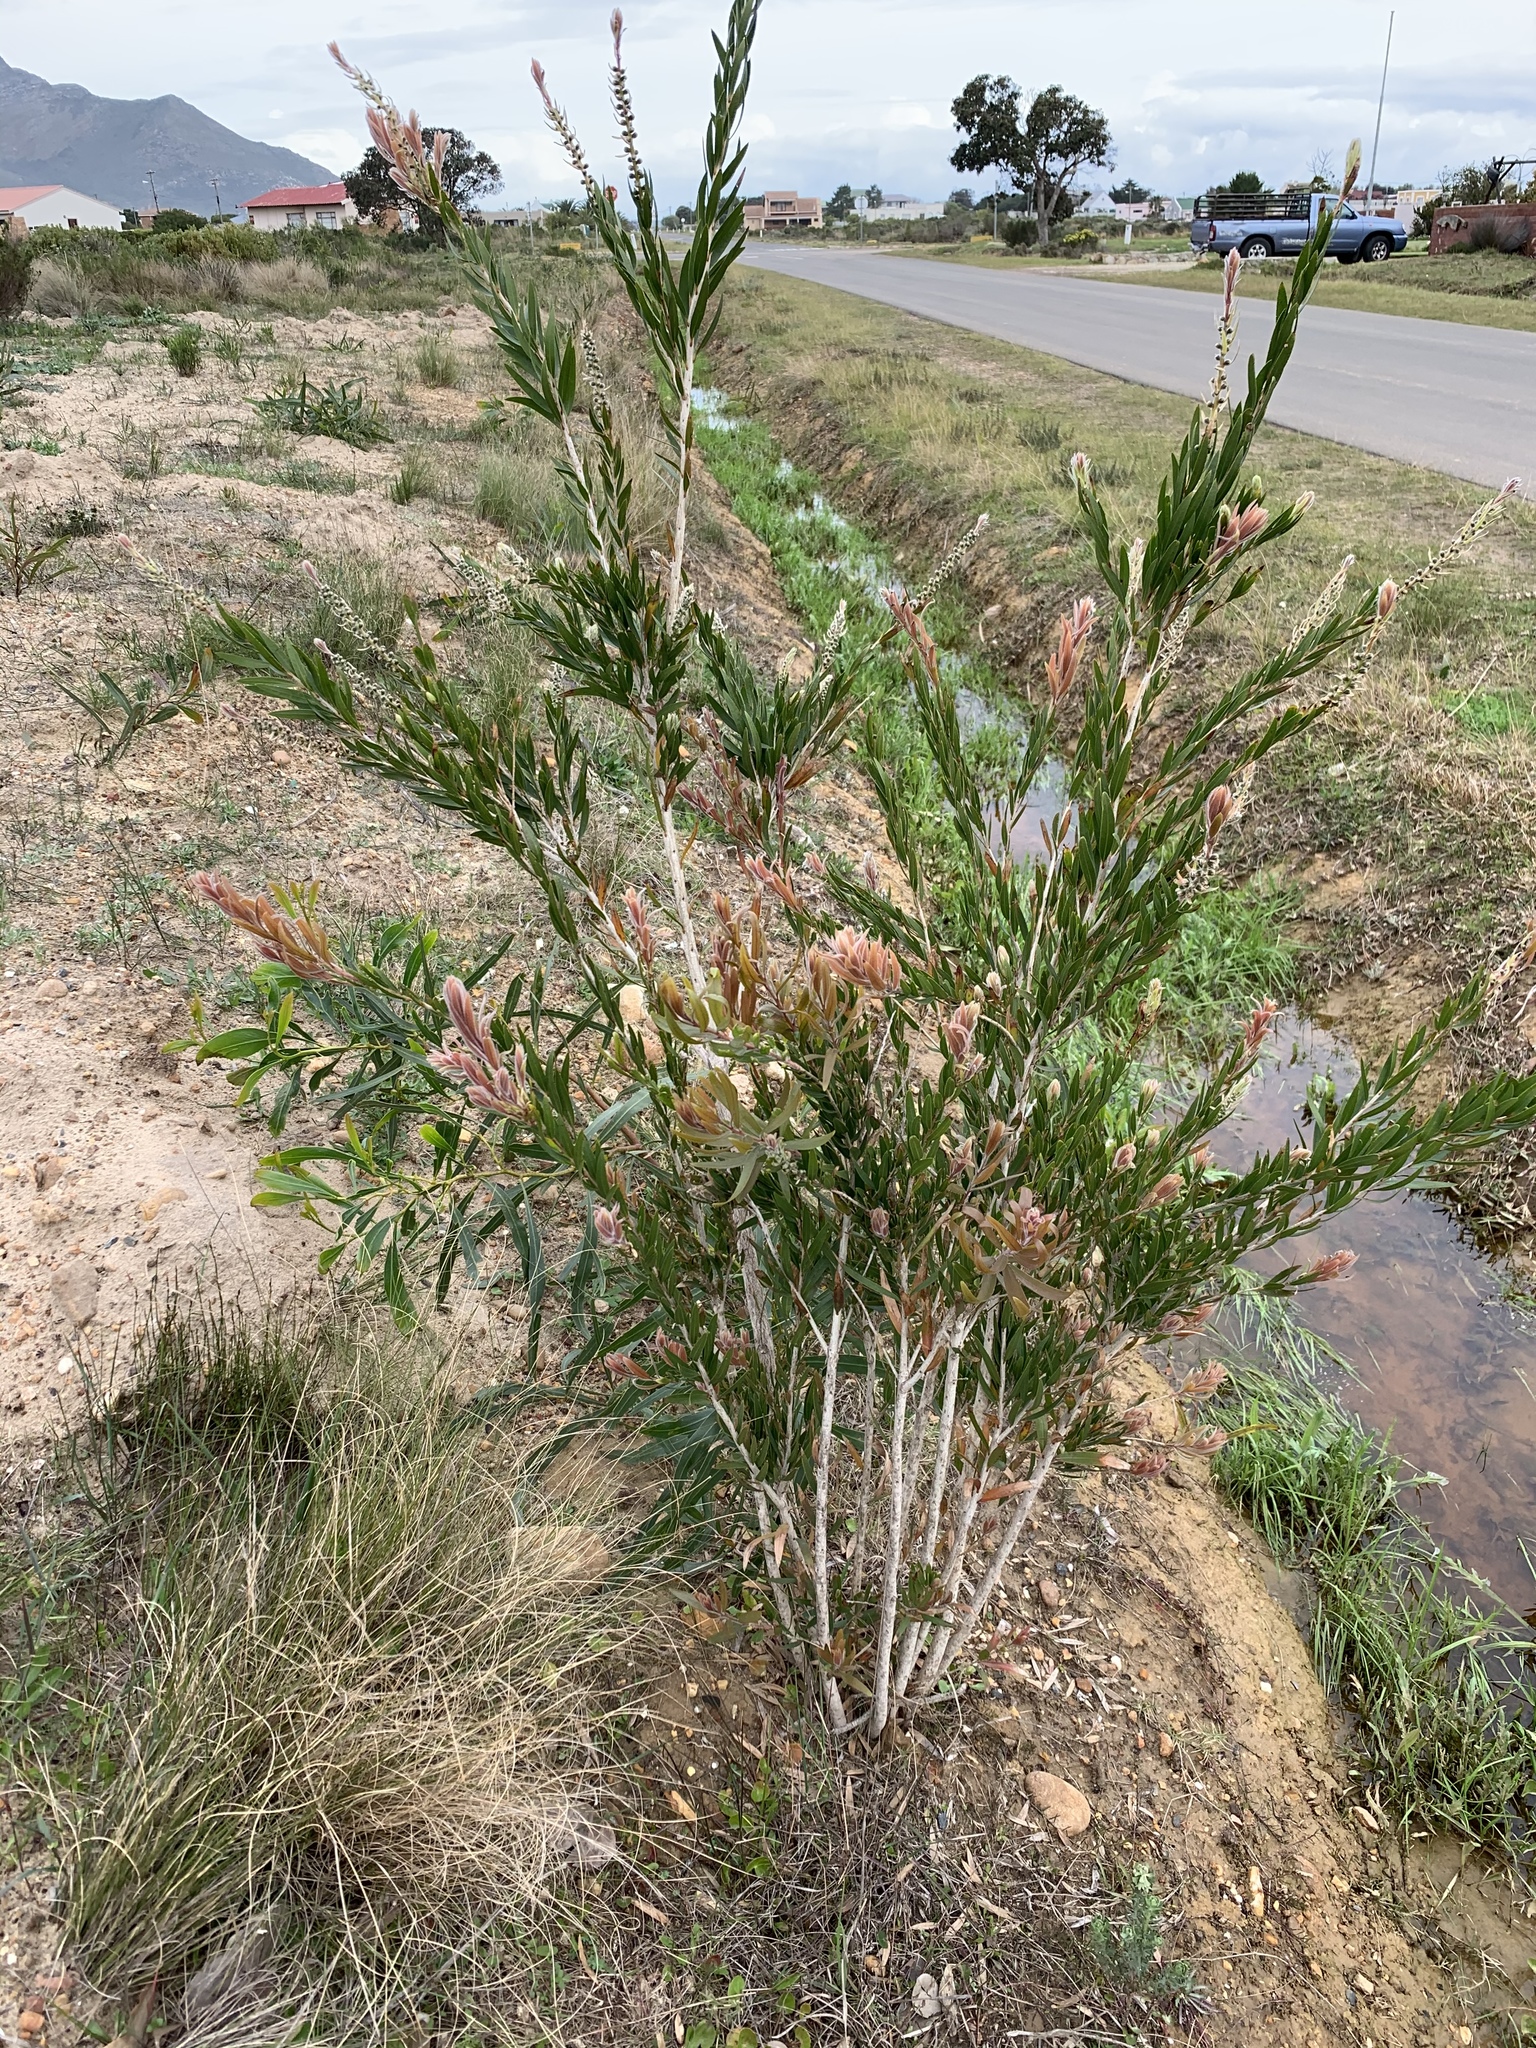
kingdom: Plantae
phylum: Tracheophyta
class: Magnoliopsida
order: Myrtales
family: Myrtaceae
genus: Callistemon
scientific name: Callistemon viminalis
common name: Drooping bottlebrush
